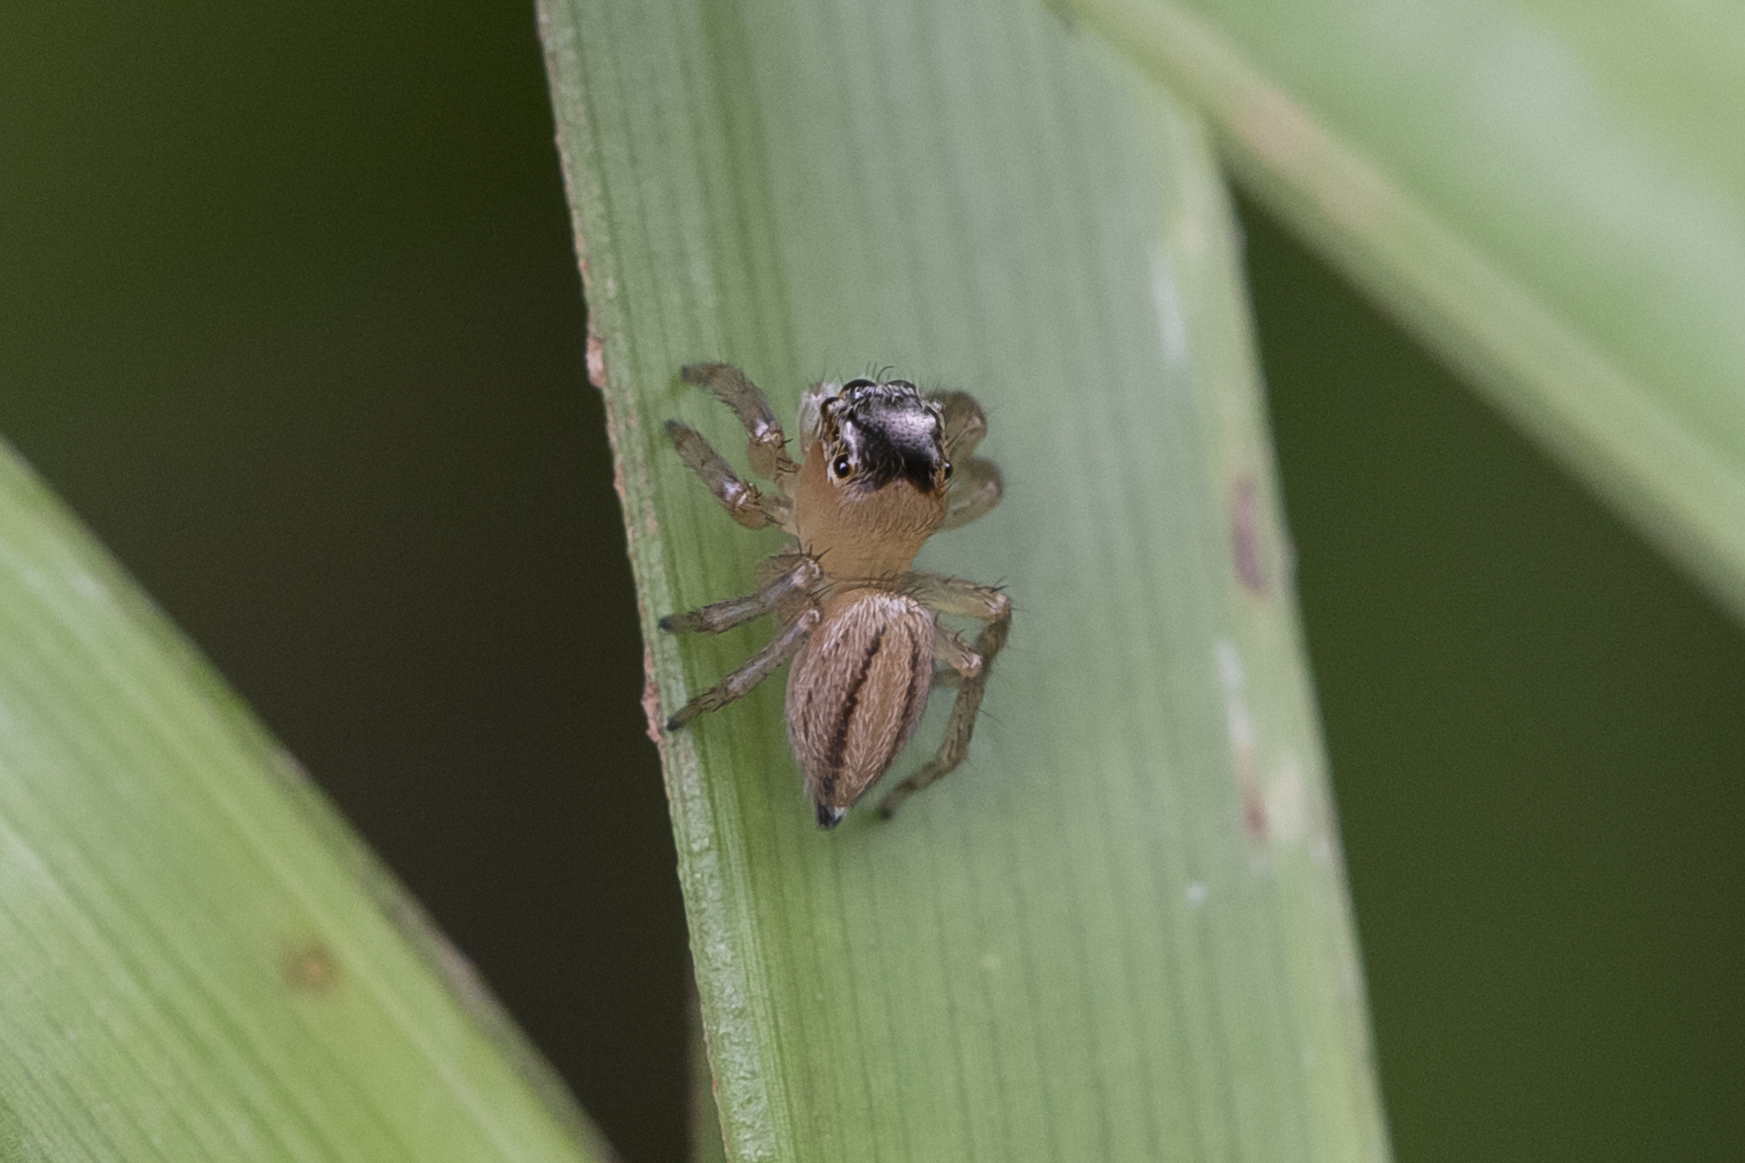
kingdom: Animalia
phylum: Arthropoda
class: Arachnida
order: Araneae
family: Salticidae
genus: Maratus
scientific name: Maratus scutulatus
